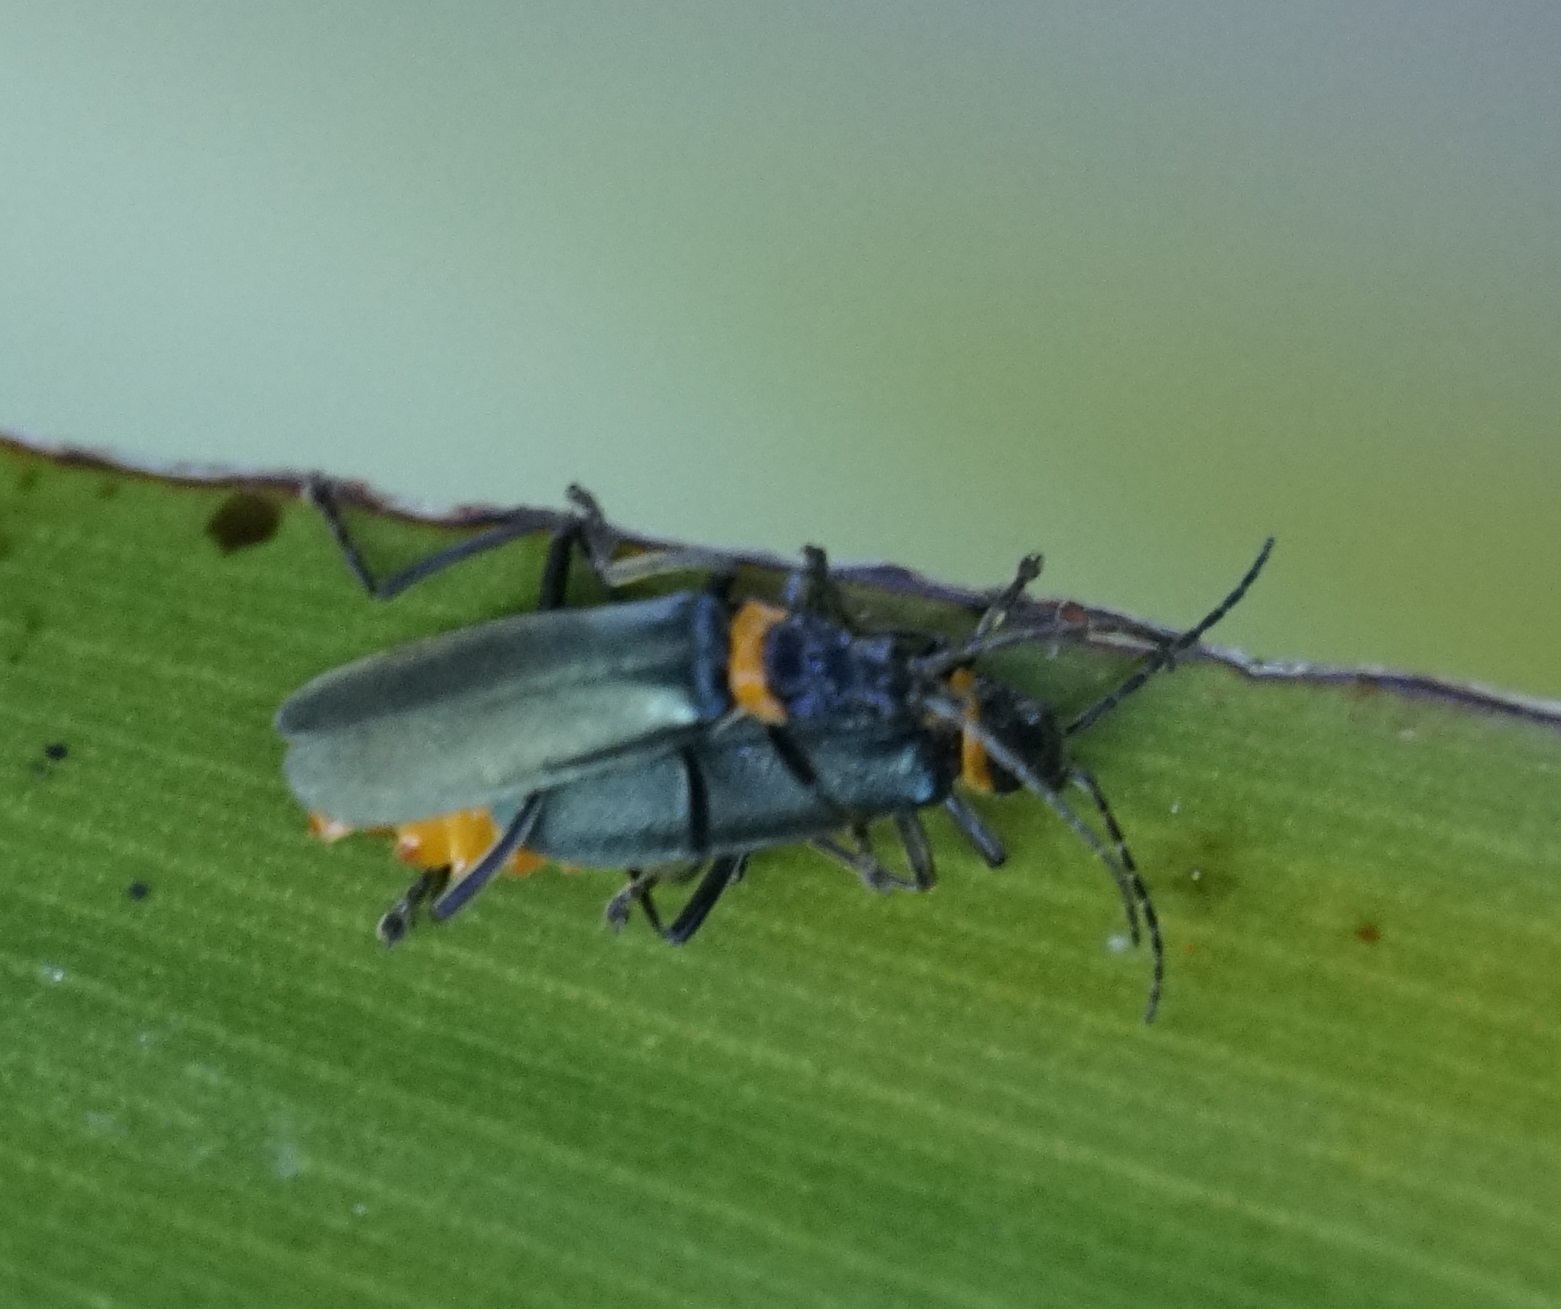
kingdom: Animalia
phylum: Arthropoda
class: Insecta
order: Coleoptera
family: Cantharidae
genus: Chauliognathus
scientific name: Chauliognathus
